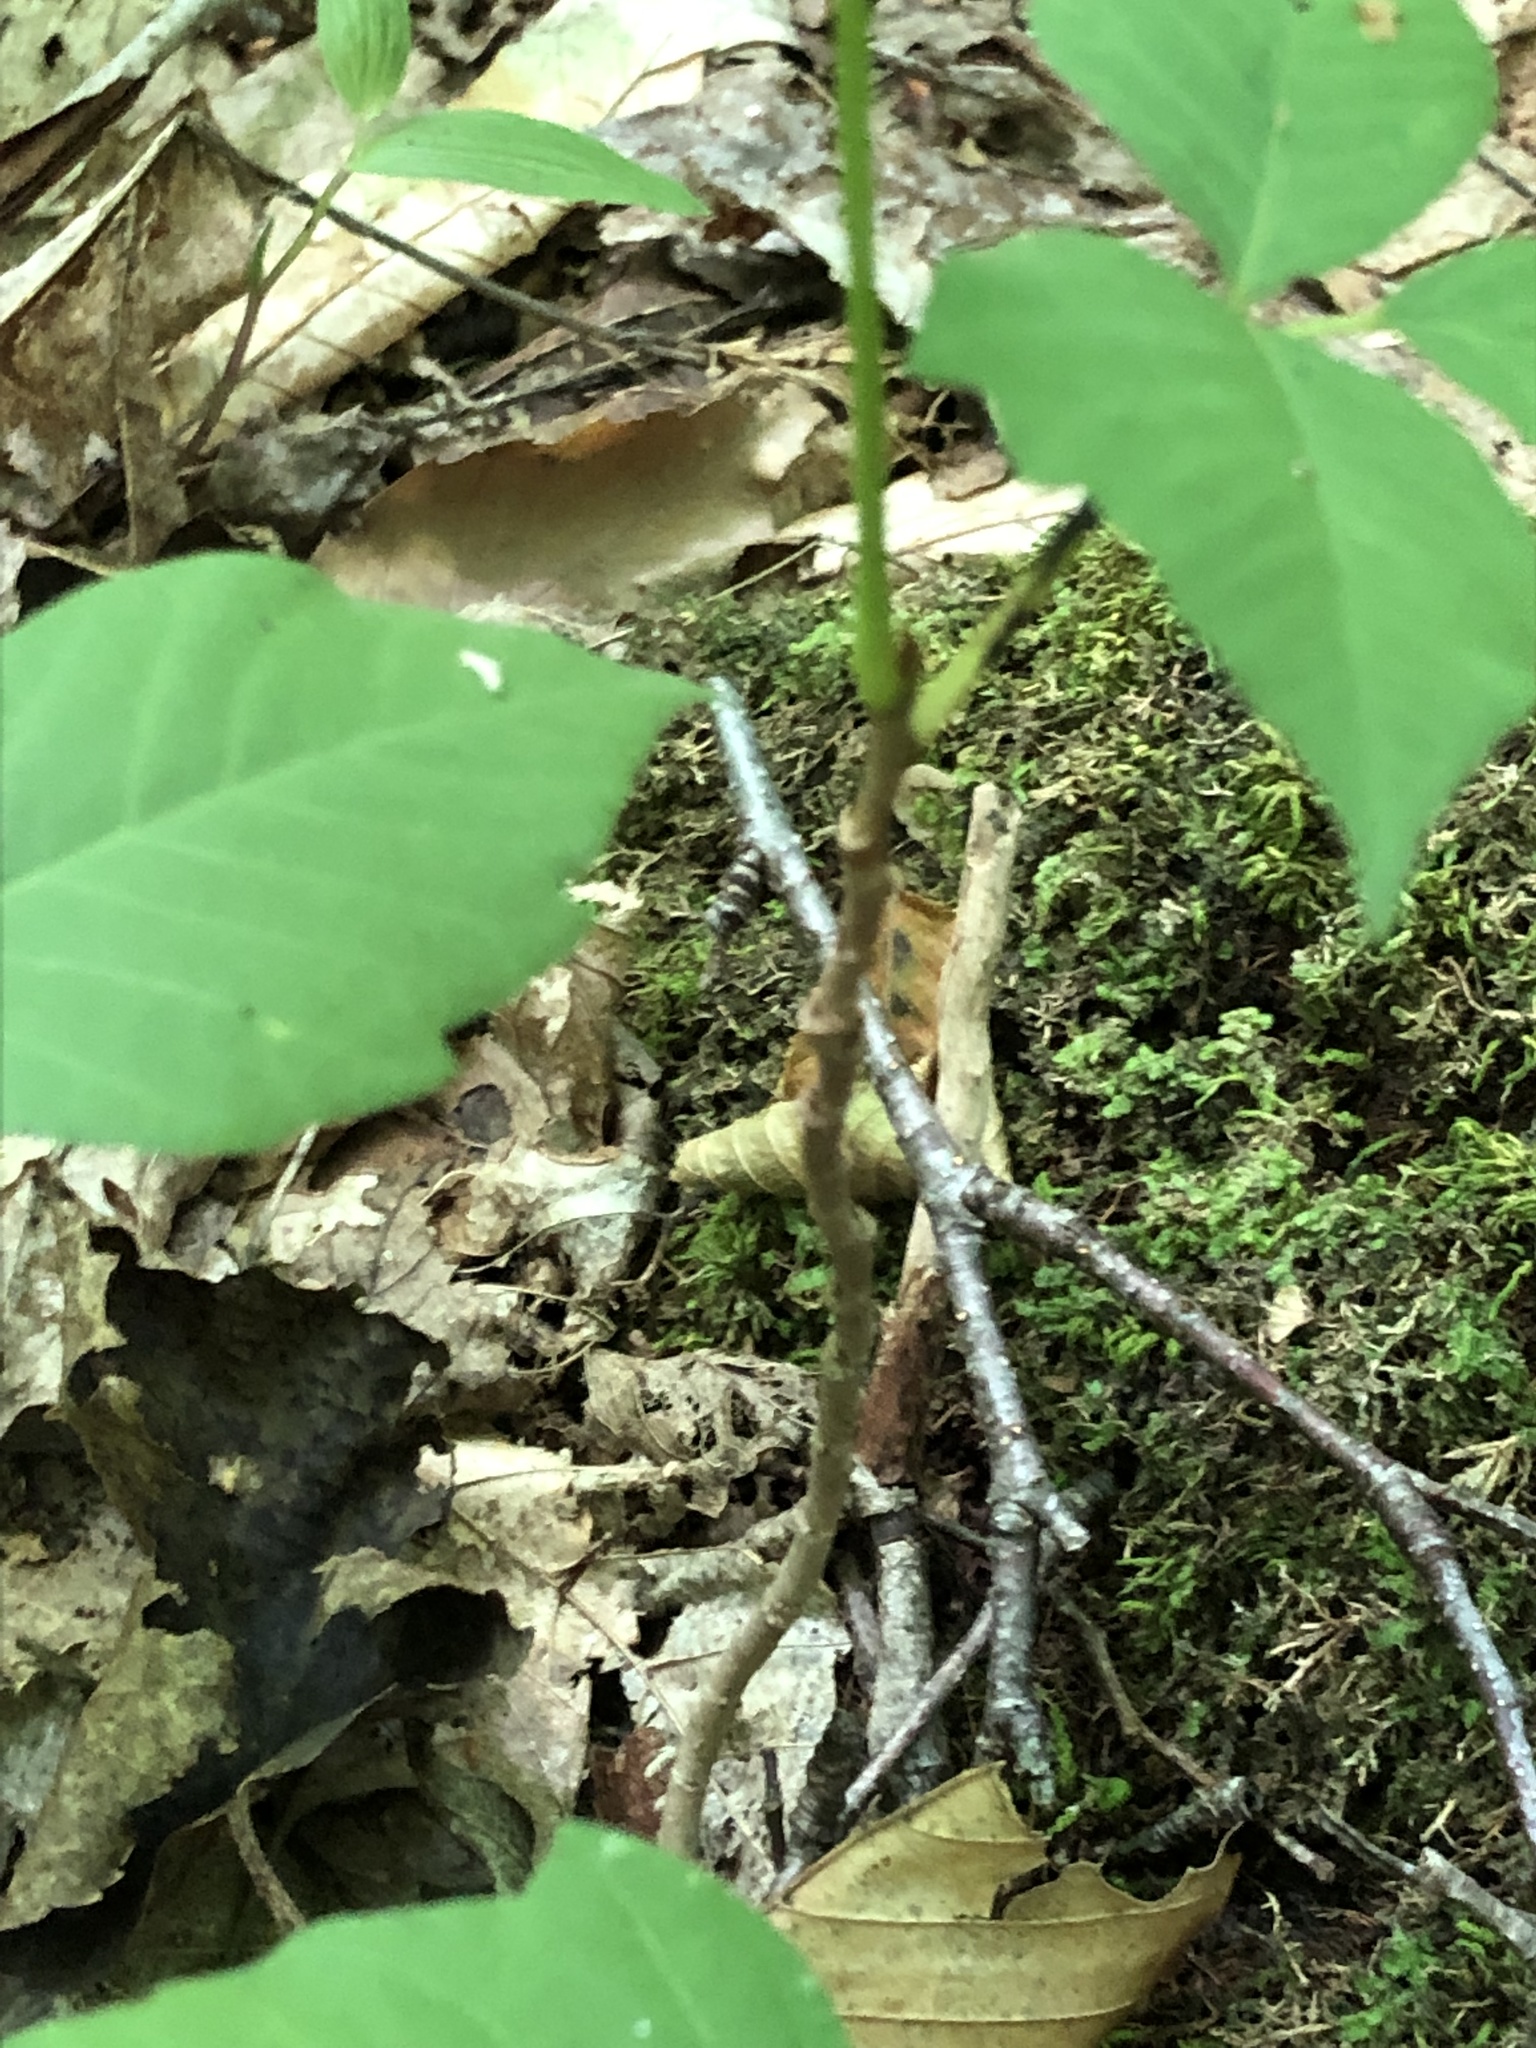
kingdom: Plantae
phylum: Tracheophyta
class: Magnoliopsida
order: Sapindales
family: Anacardiaceae
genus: Toxicodendron
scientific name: Toxicodendron rydbergii
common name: Rydberg's poison-ivy
